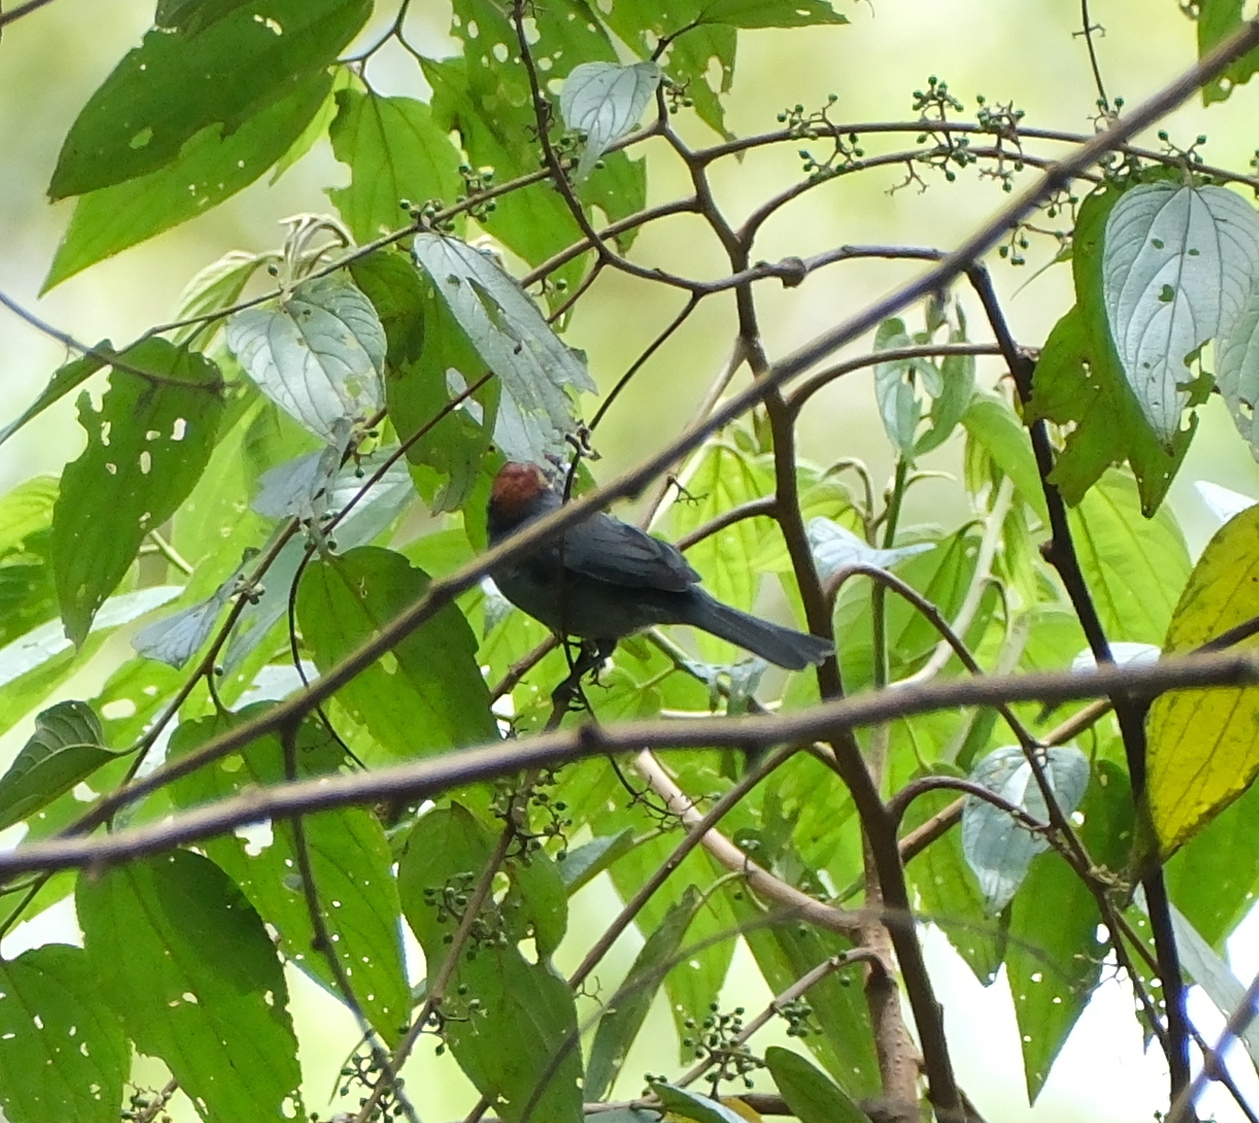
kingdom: Animalia
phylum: Chordata
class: Aves
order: Passeriformes
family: Thraupidae
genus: Creurgops
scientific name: Creurgops dentatus
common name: Slaty tanager
